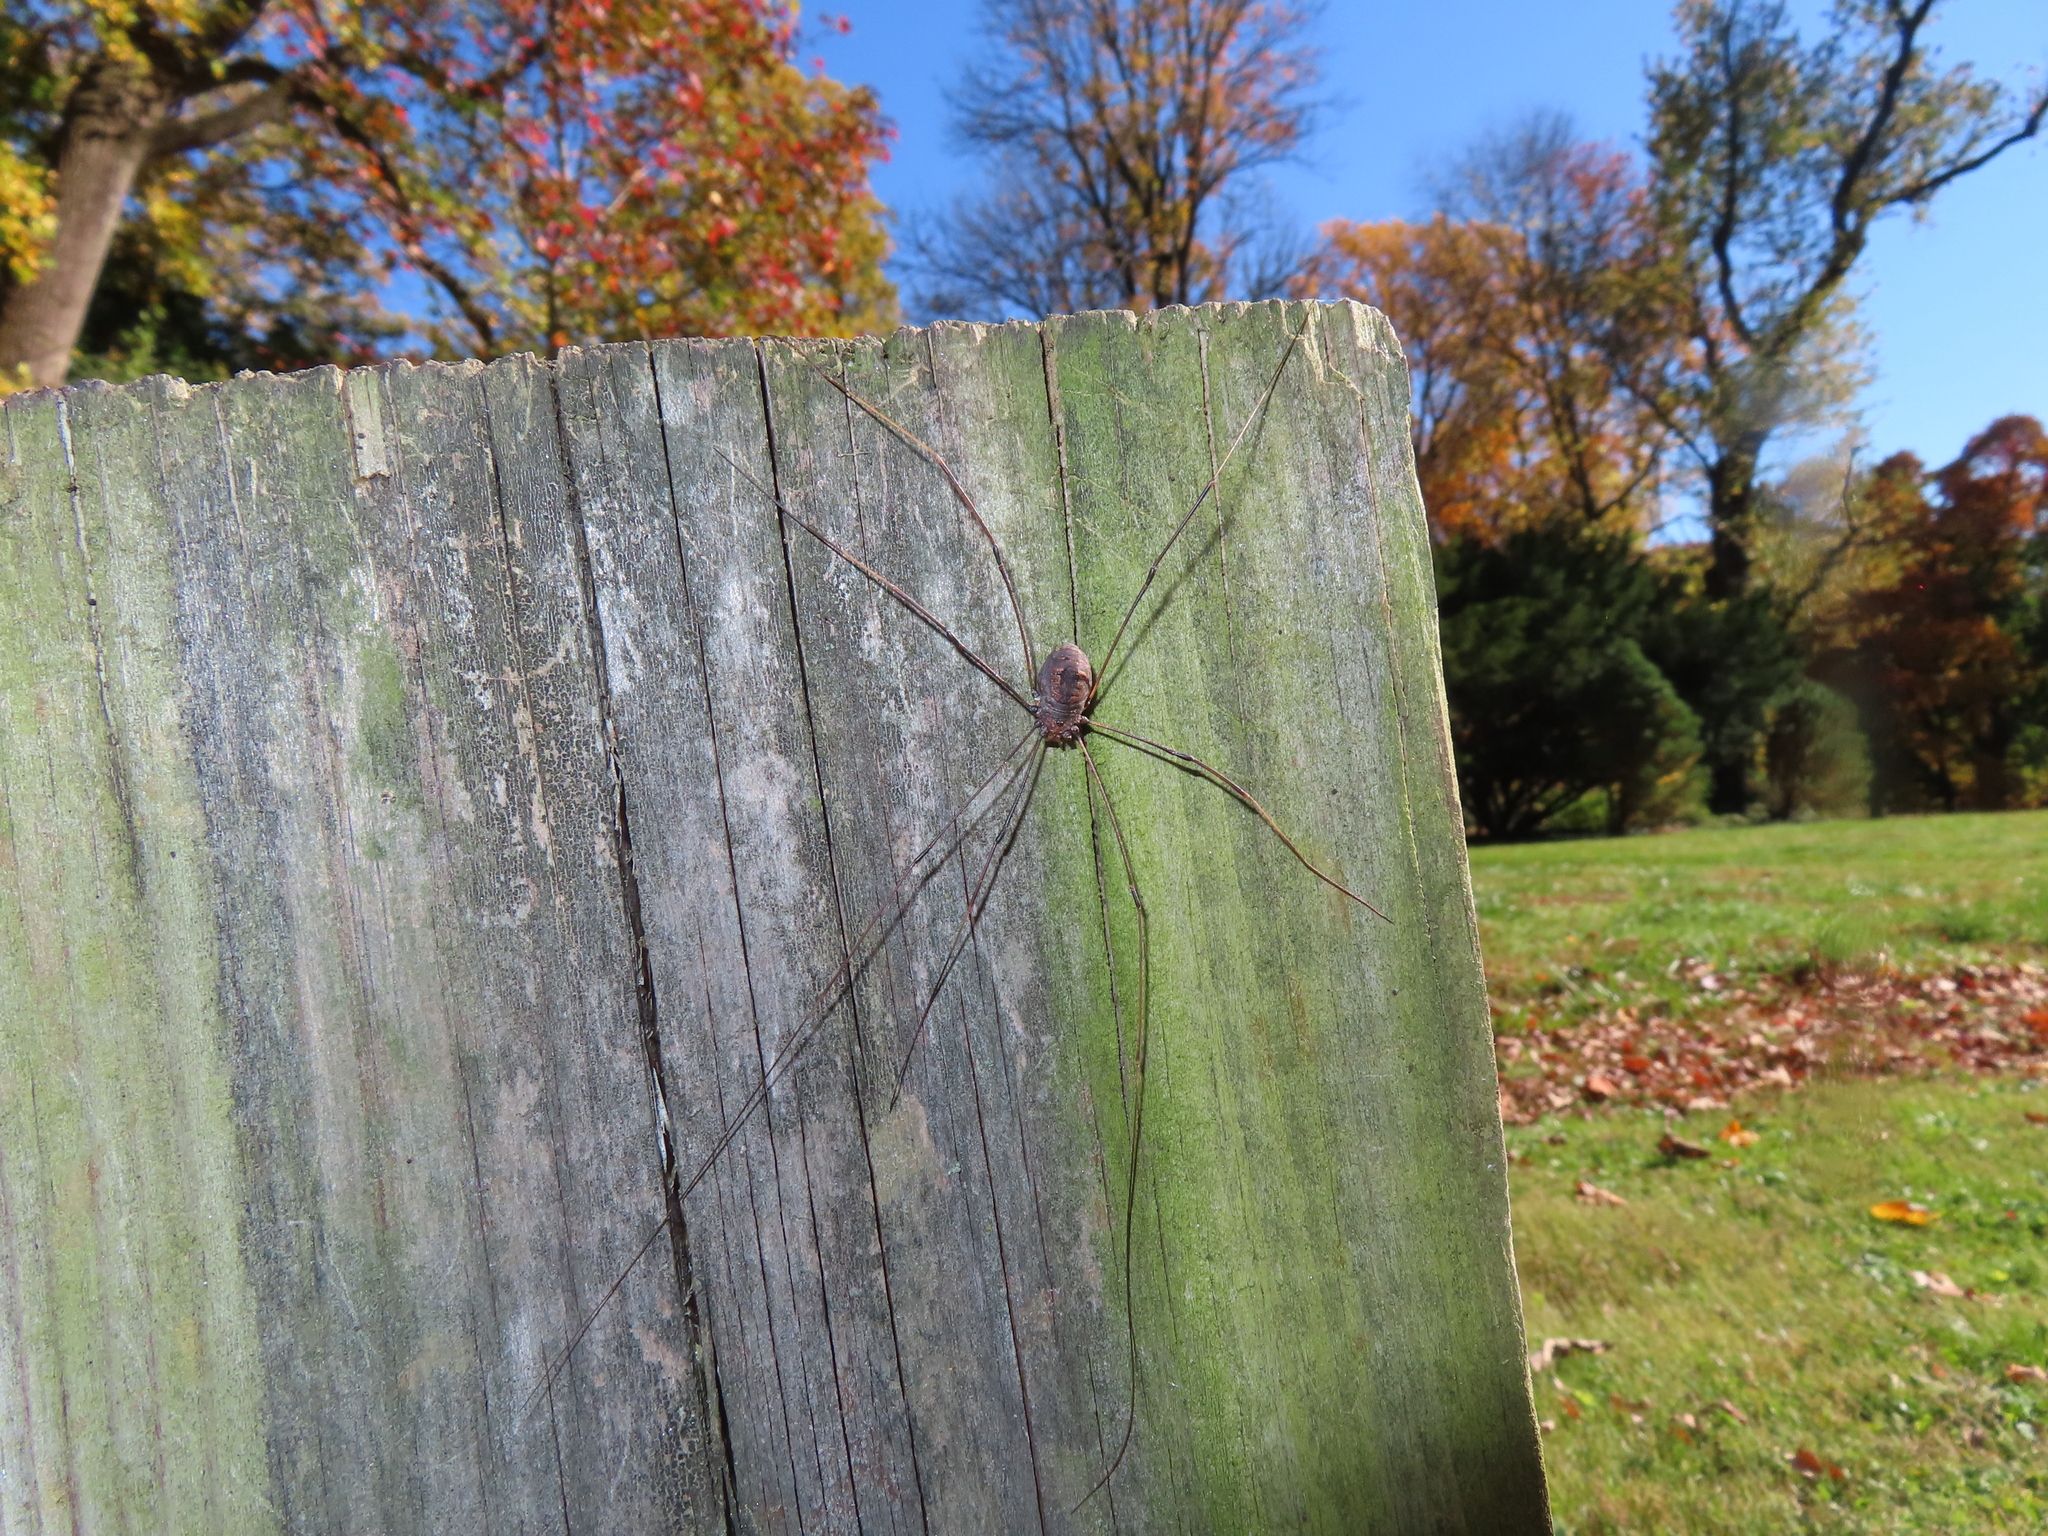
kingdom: Animalia
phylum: Arthropoda
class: Arachnida
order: Opiliones
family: Sclerosomatidae
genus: Leiobunum
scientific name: Leiobunum vittatum
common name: Eastern harvestman
